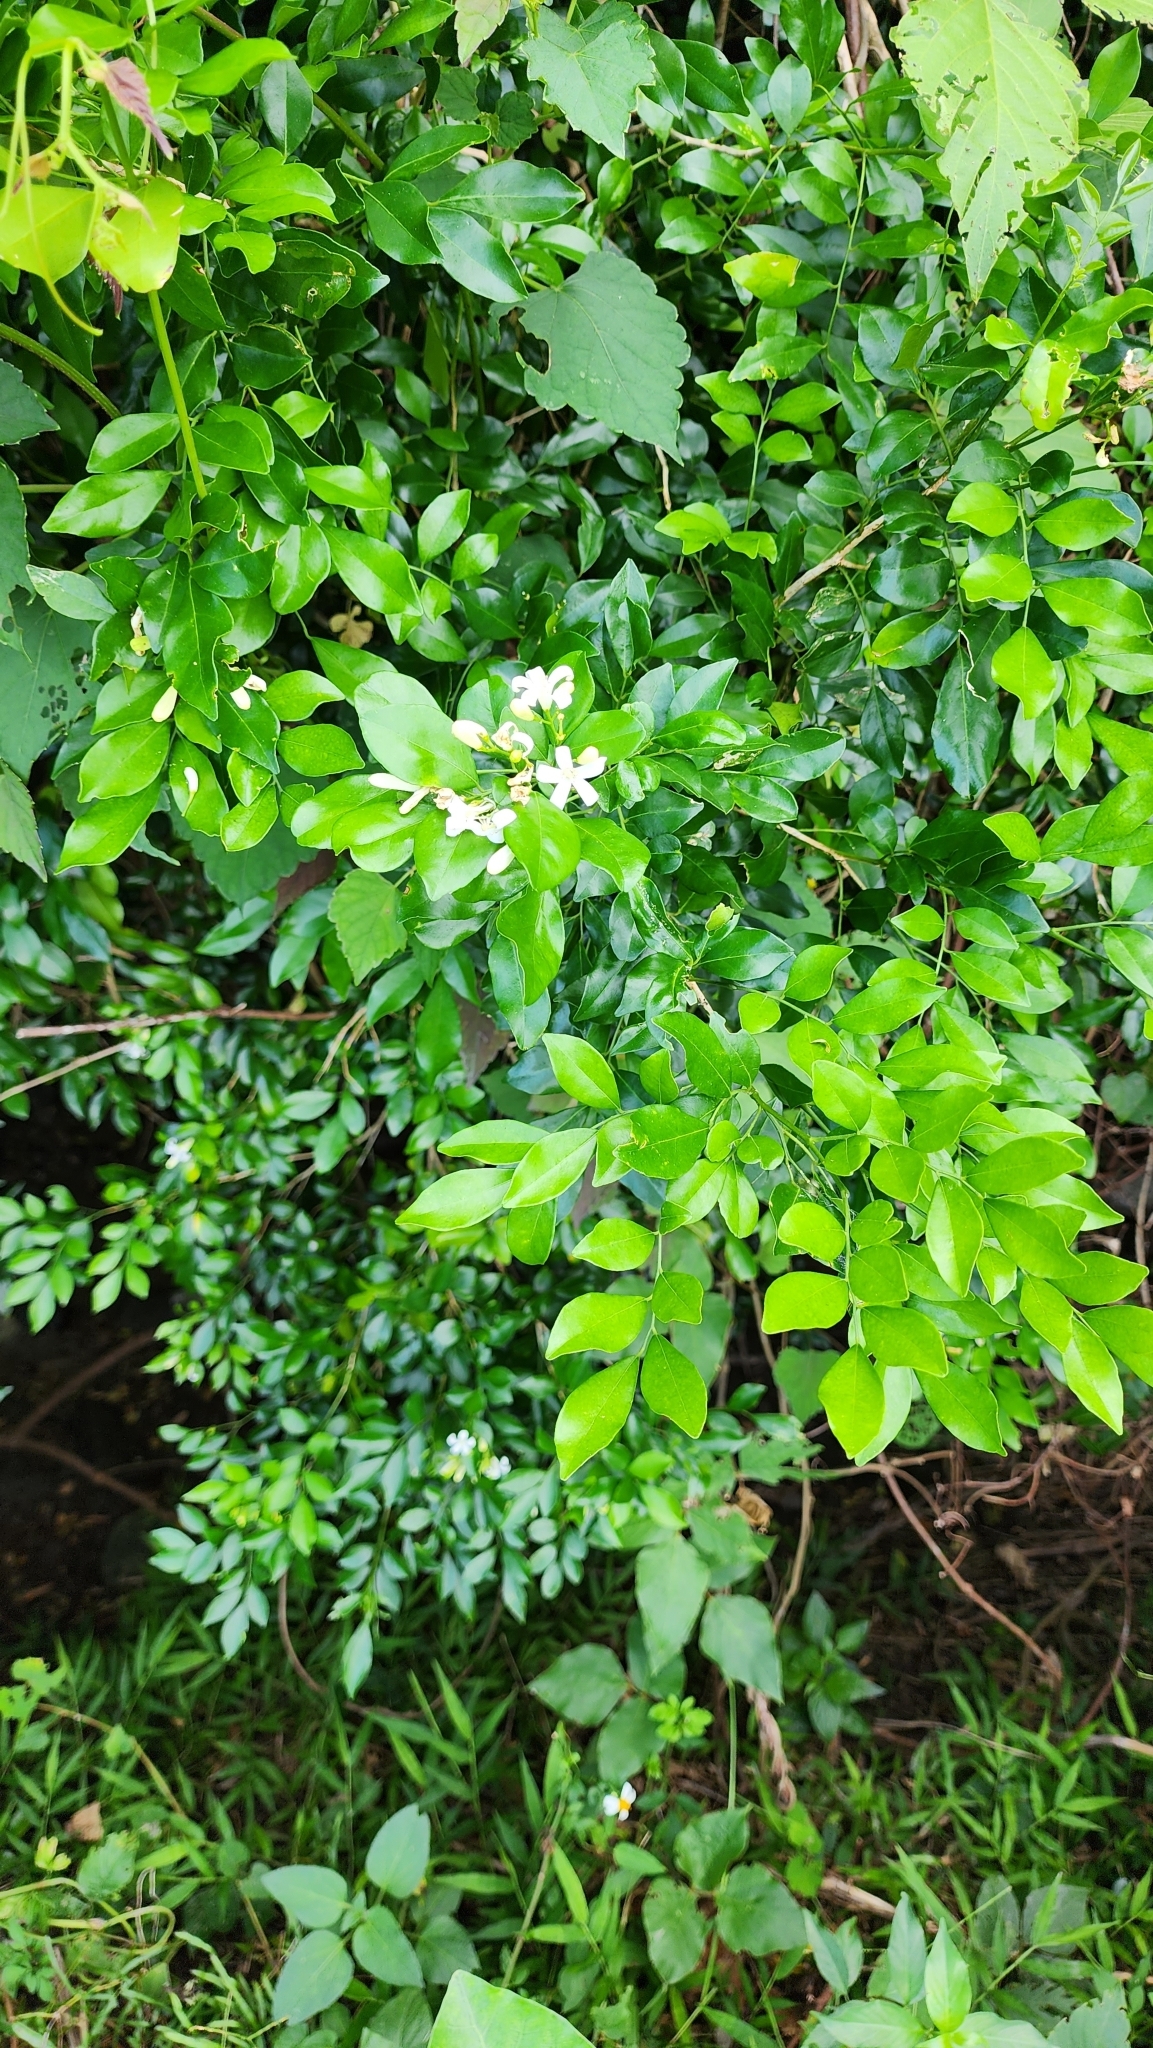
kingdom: Plantae
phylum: Tracheophyta
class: Magnoliopsida
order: Sapindales
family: Rutaceae
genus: Murraya
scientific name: Murraya paniculata
